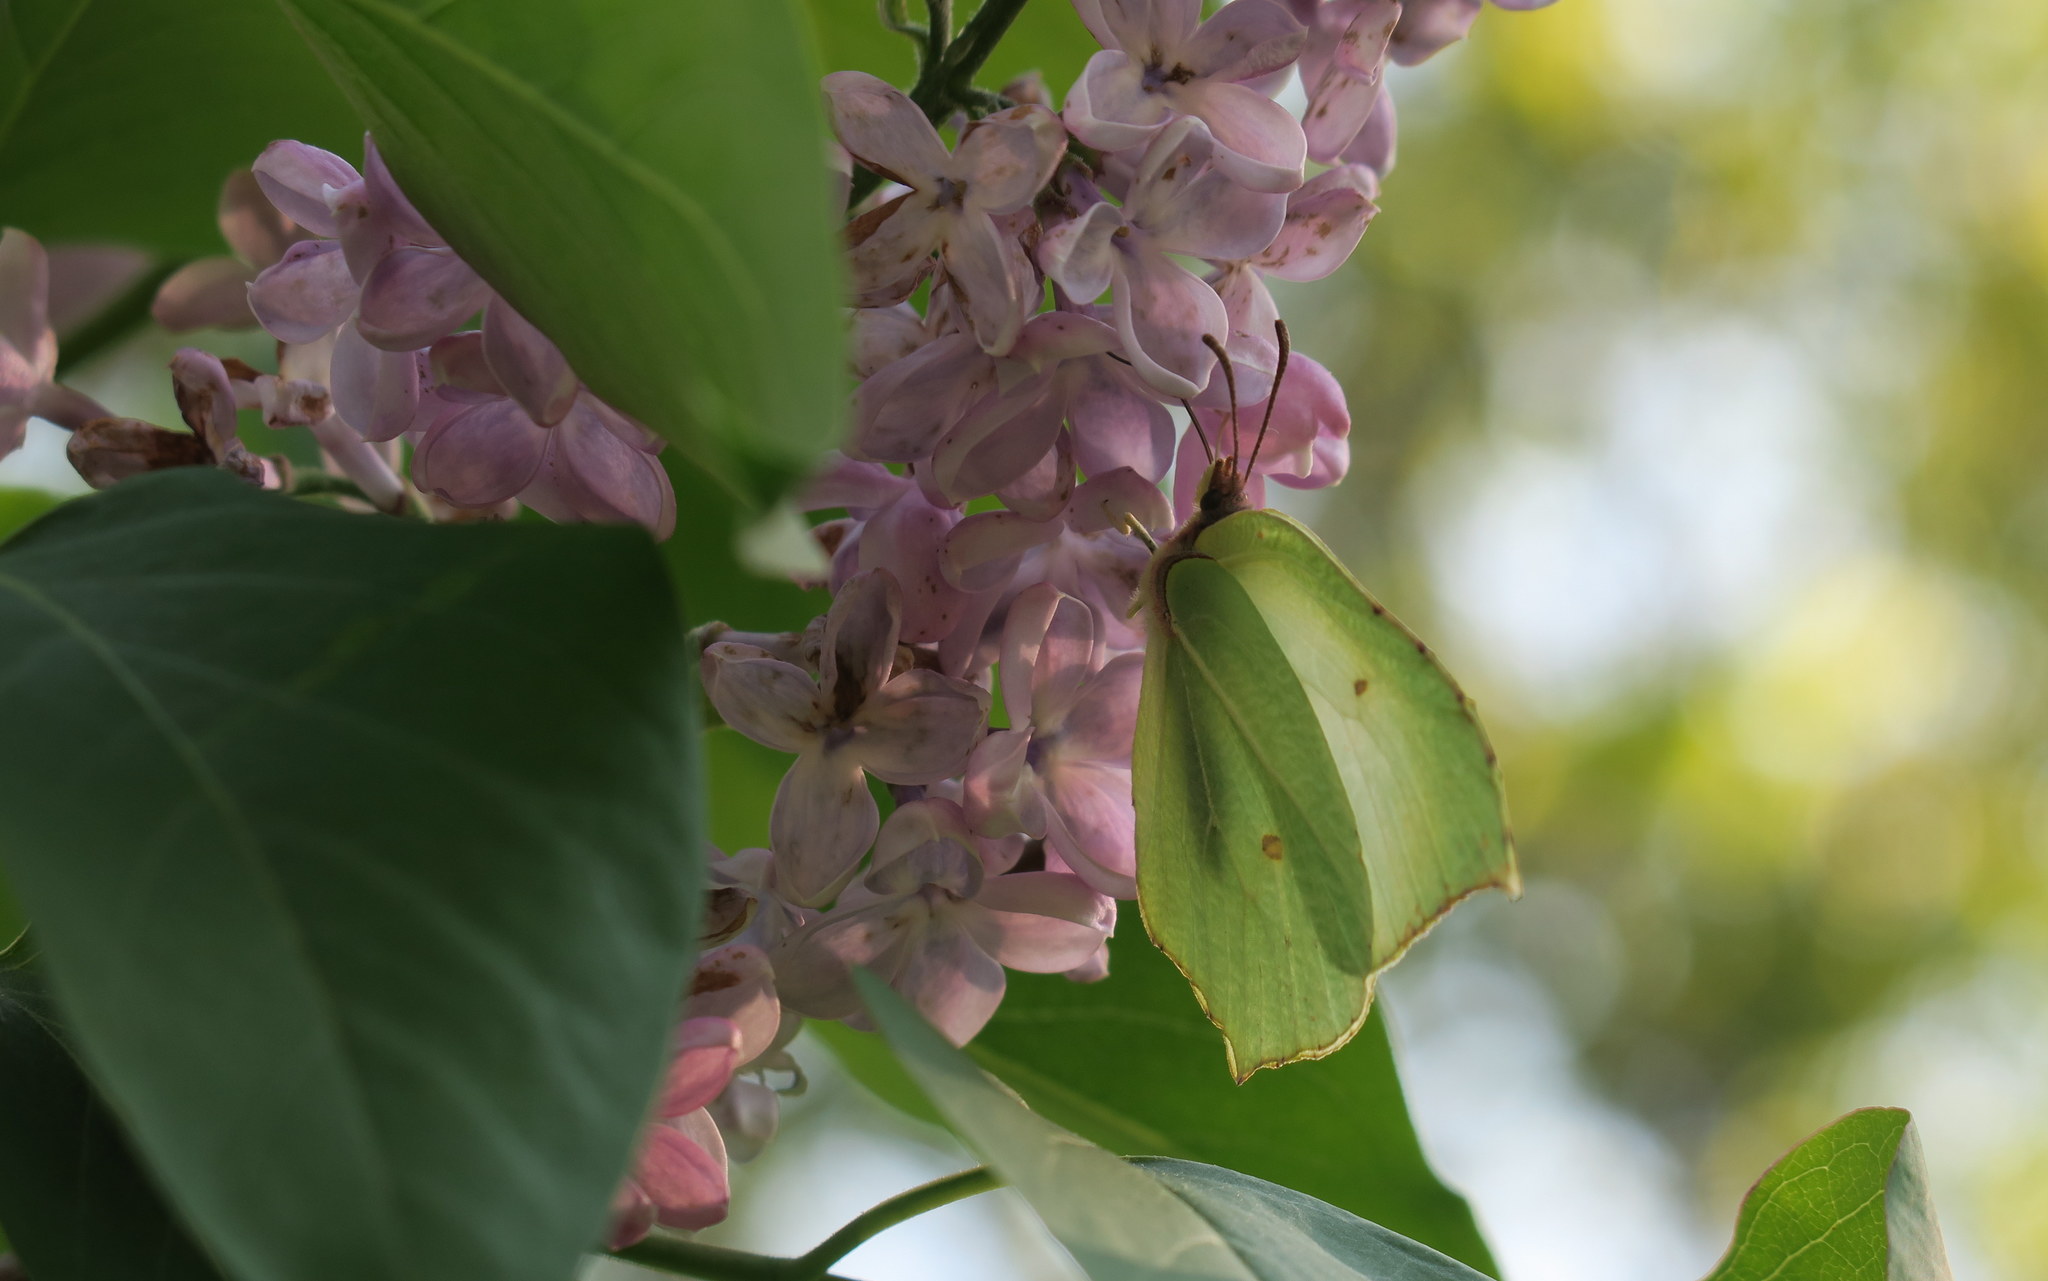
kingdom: Animalia
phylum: Arthropoda
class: Insecta
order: Lepidoptera
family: Pieridae
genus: Gonepteryx
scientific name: Gonepteryx rhamni
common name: Brimstone
